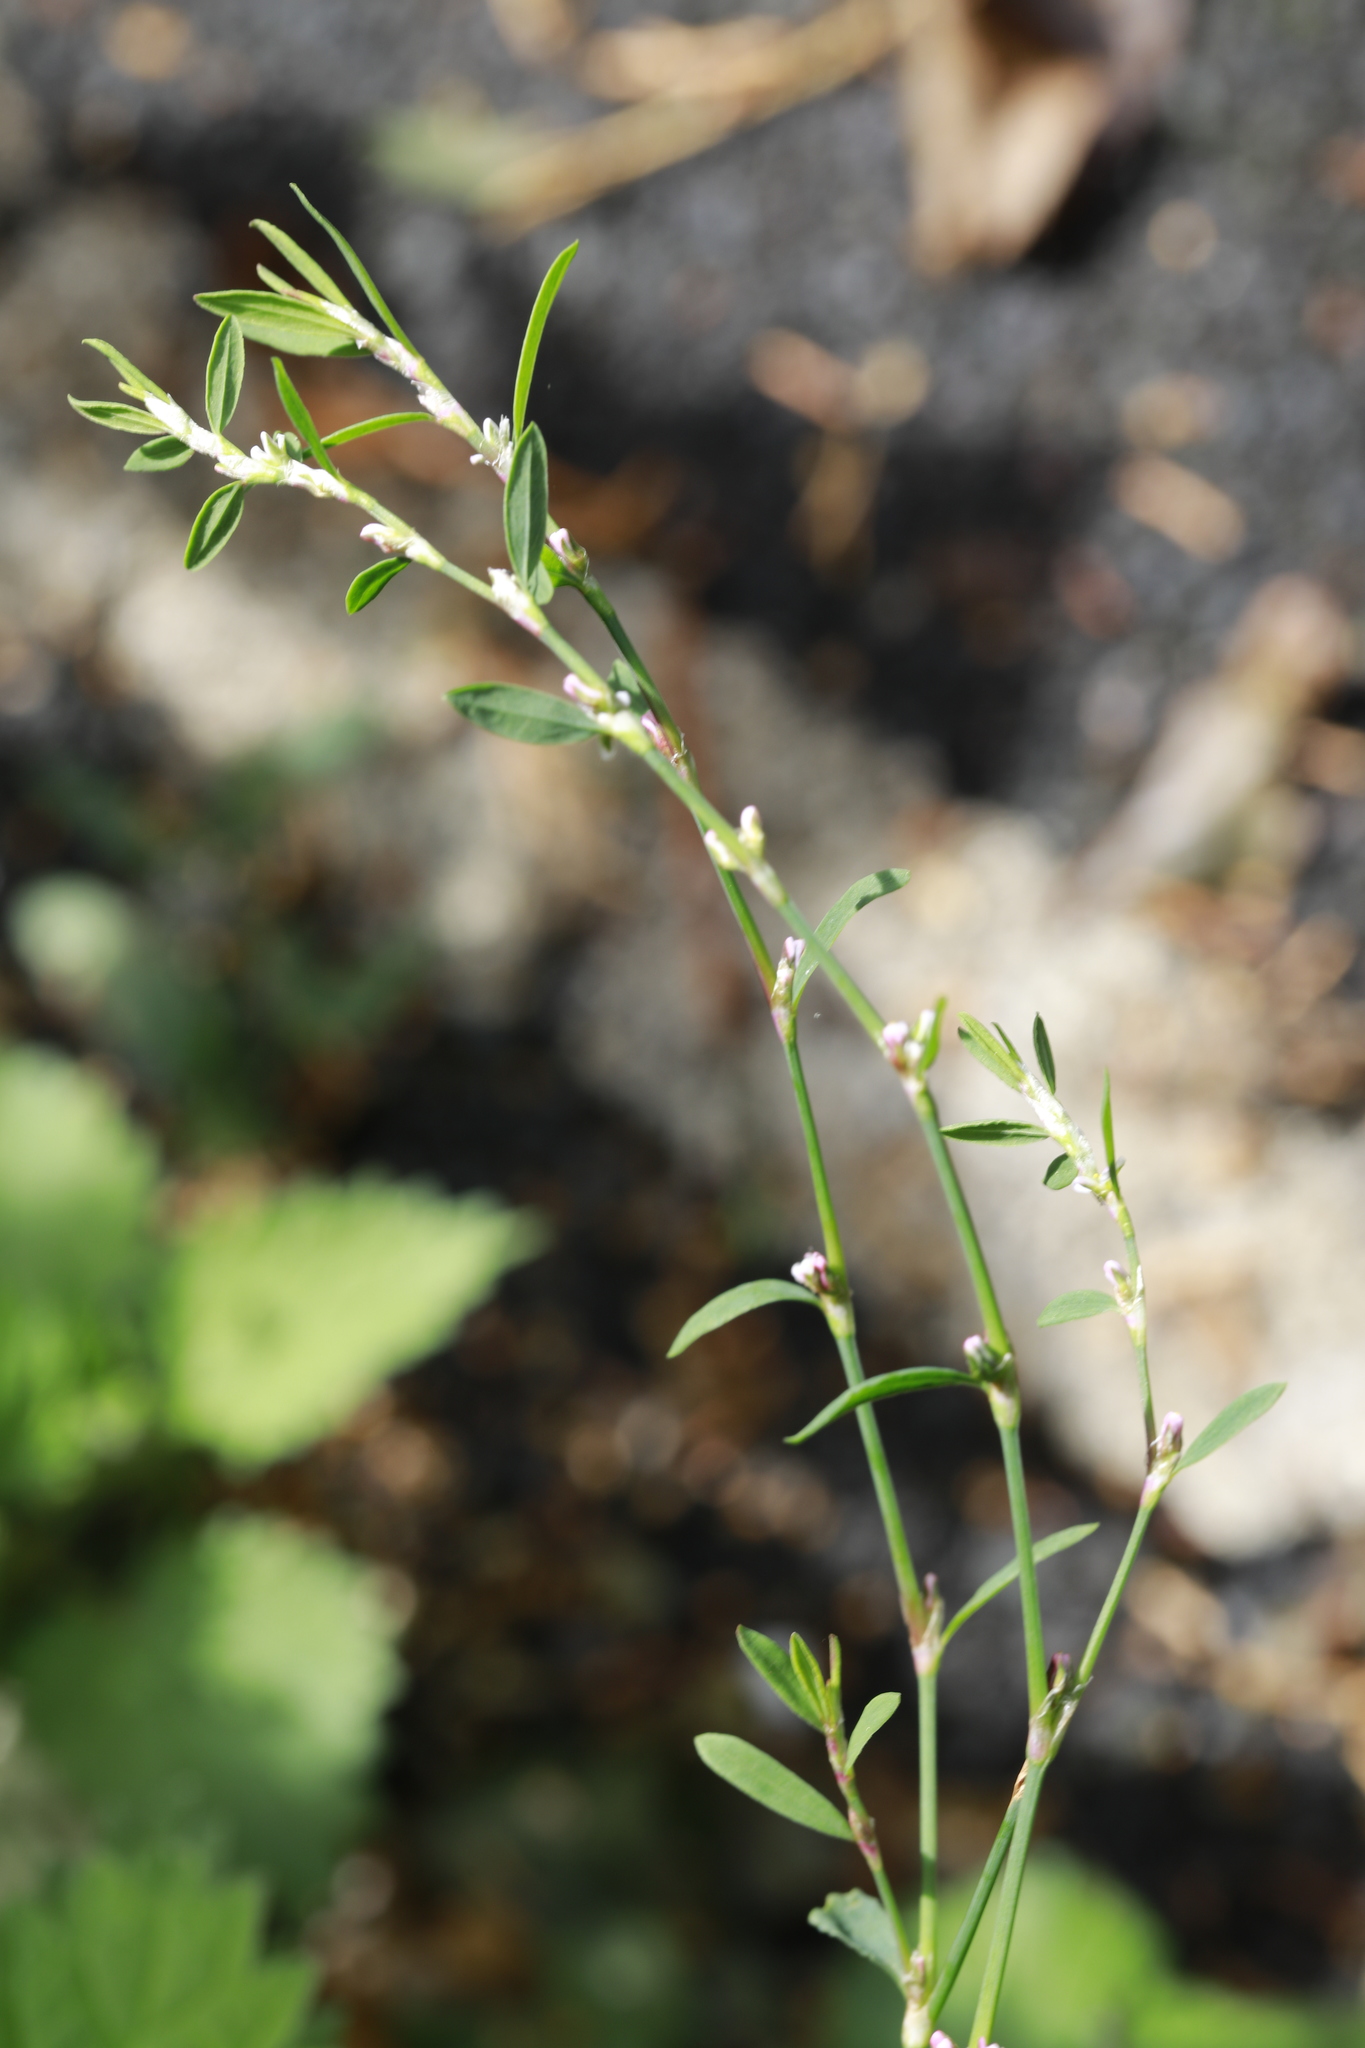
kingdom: Plantae
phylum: Tracheophyta
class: Magnoliopsida
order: Caryophyllales
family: Polygonaceae
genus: Polygonum
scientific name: Polygonum aviculare
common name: Prostrate knotweed
